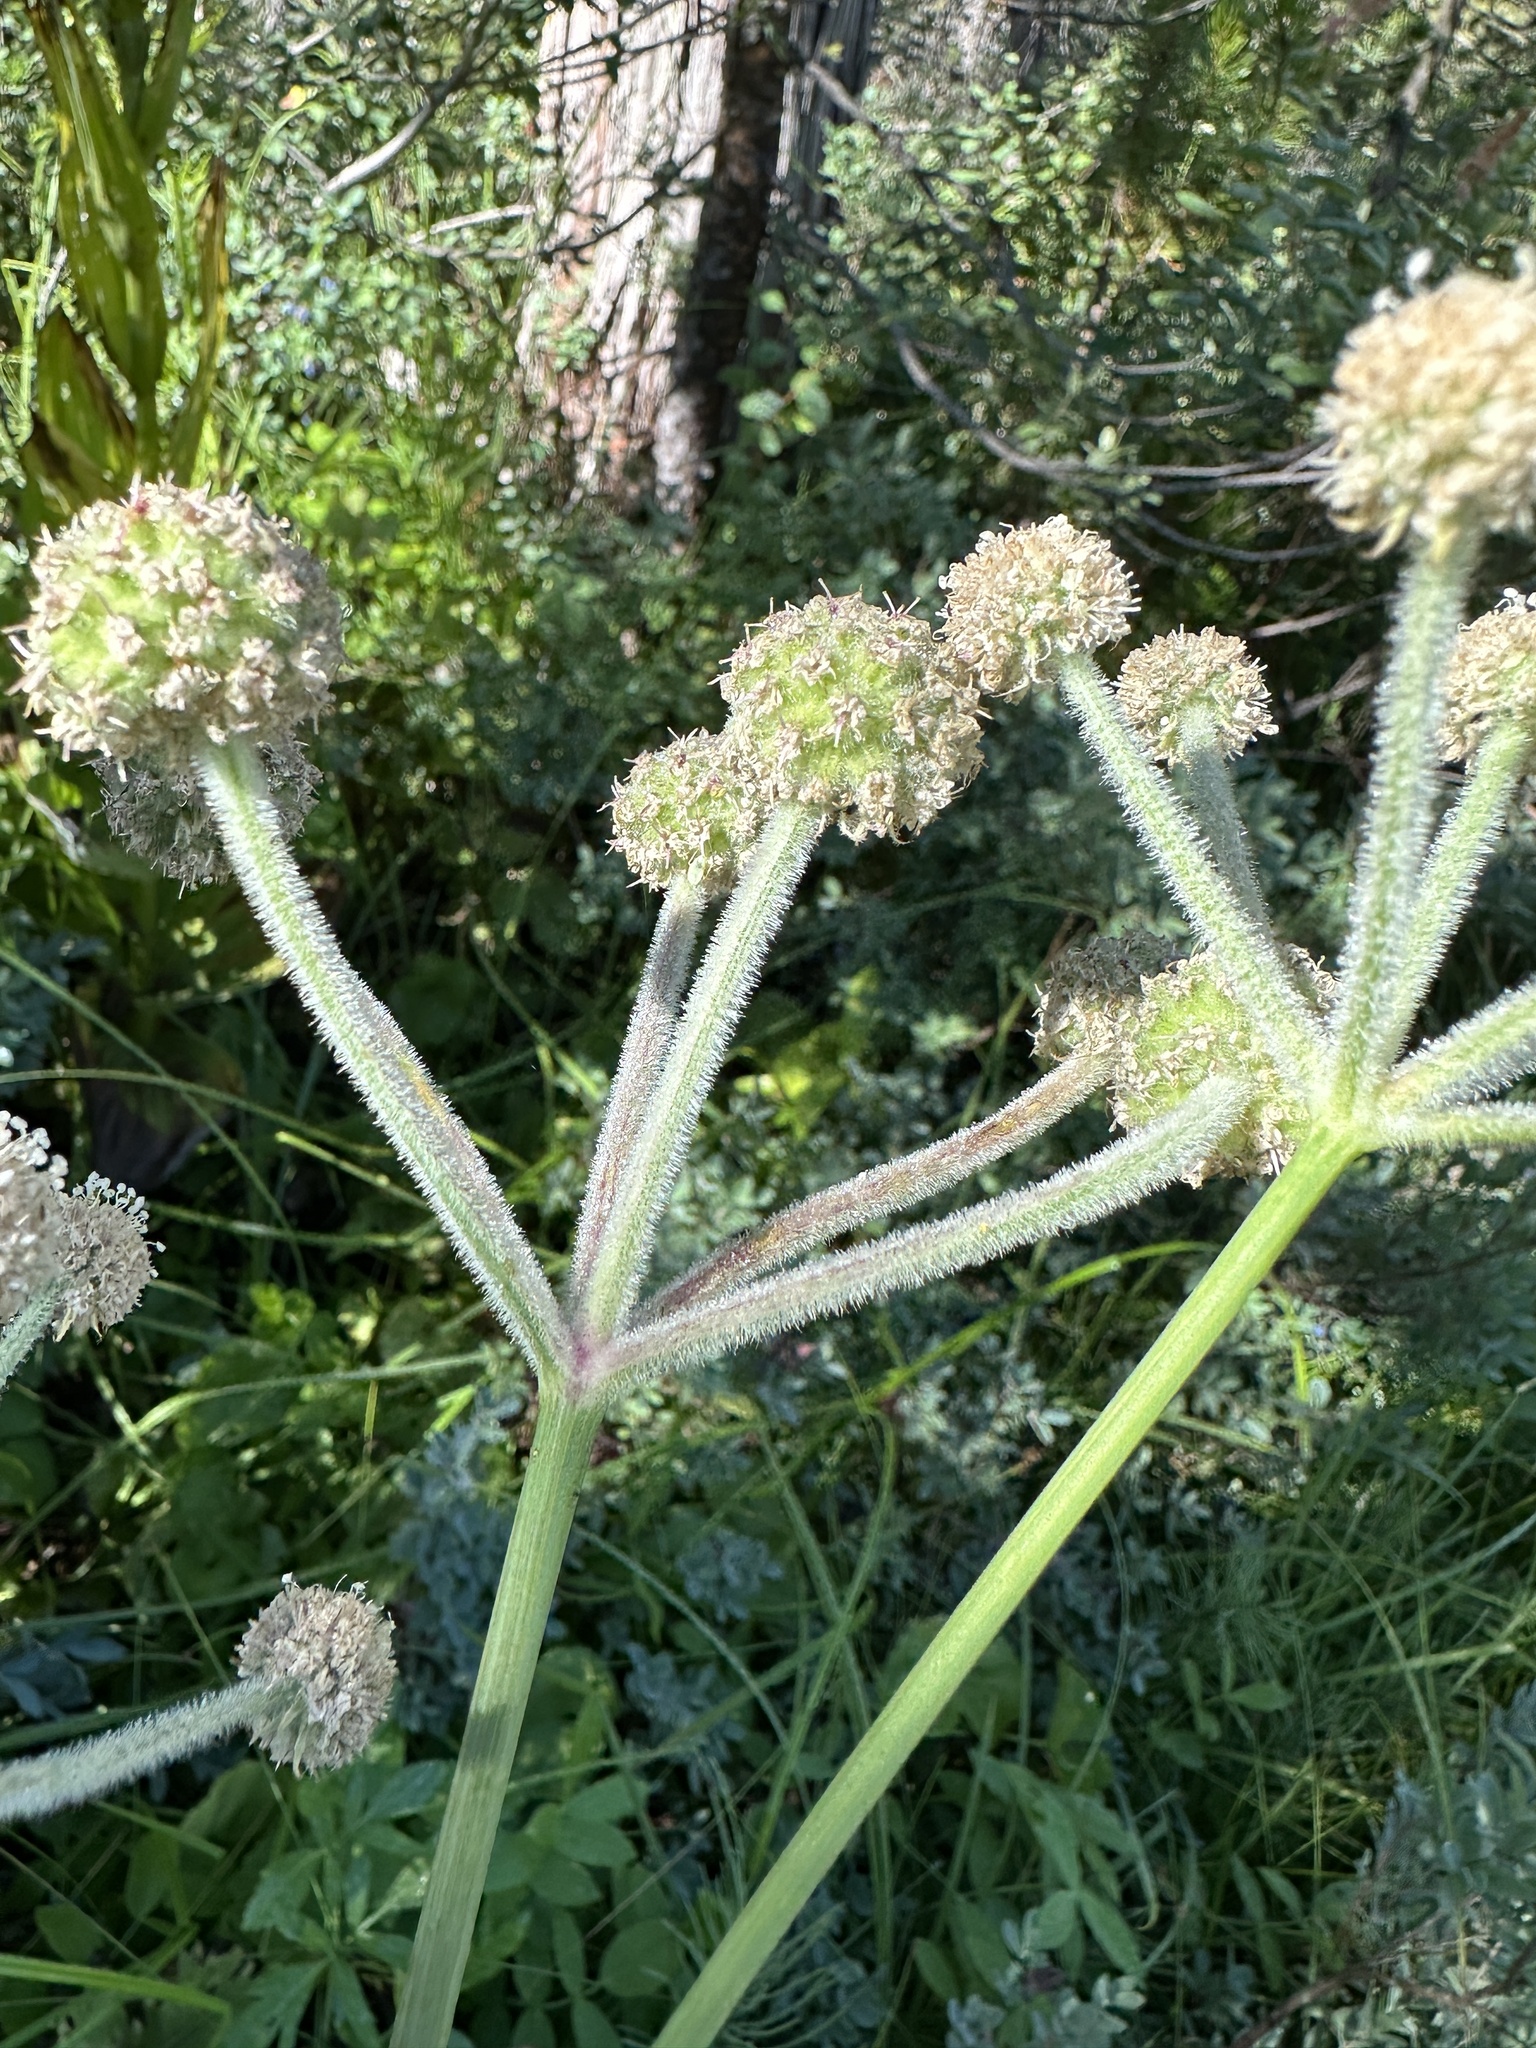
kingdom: Plantae
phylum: Tracheophyta
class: Magnoliopsida
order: Apiales
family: Apiaceae
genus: Angelica
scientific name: Angelica capitellata
